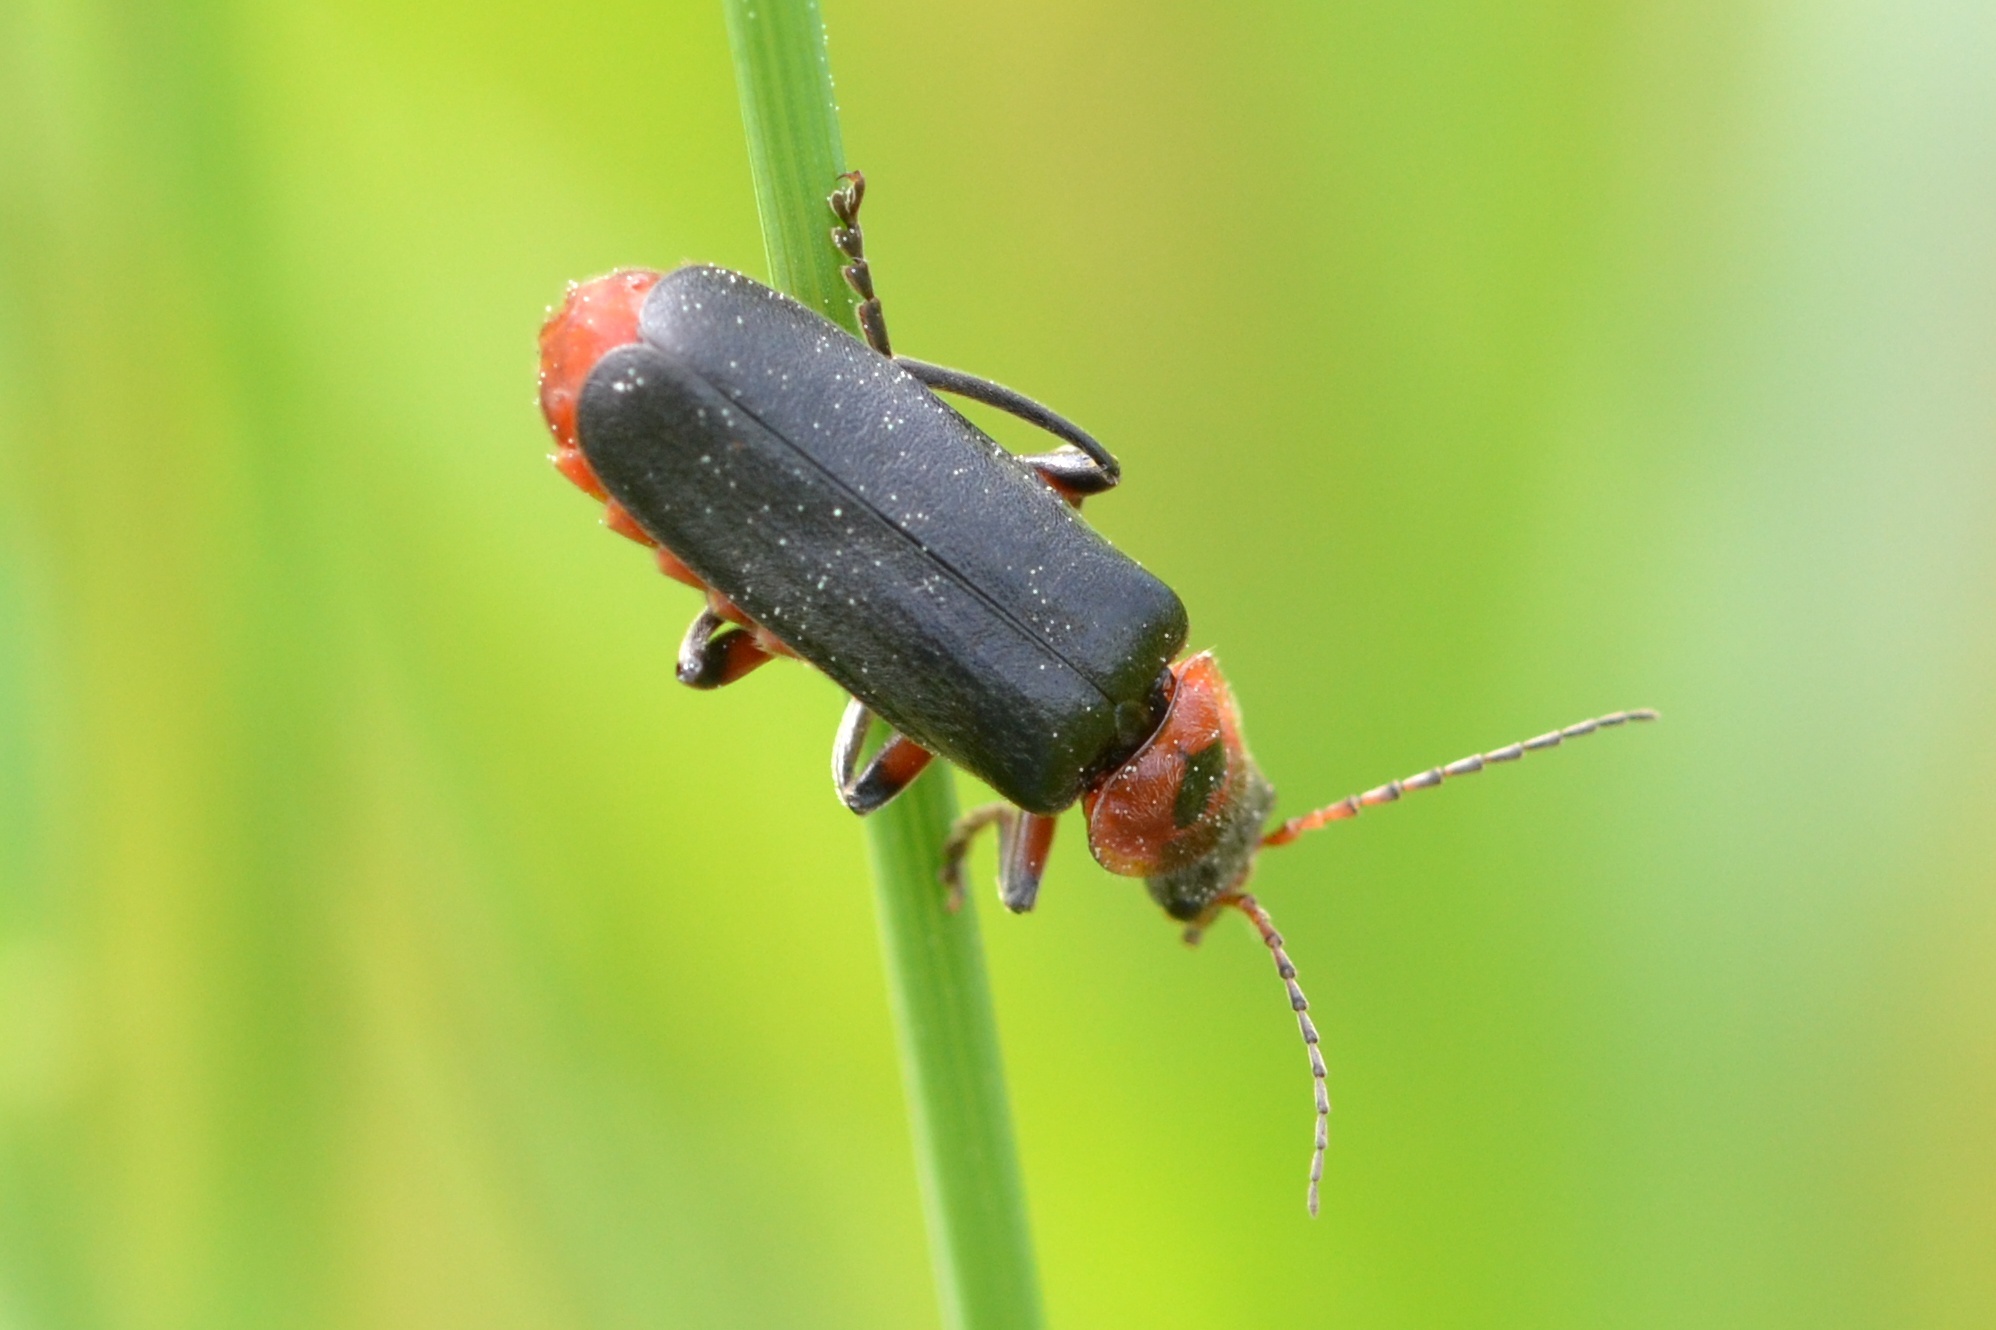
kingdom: Animalia
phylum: Arthropoda
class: Insecta
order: Coleoptera
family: Cantharidae
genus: Cantharis
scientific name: Cantharis rustica
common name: Soldier beetle
